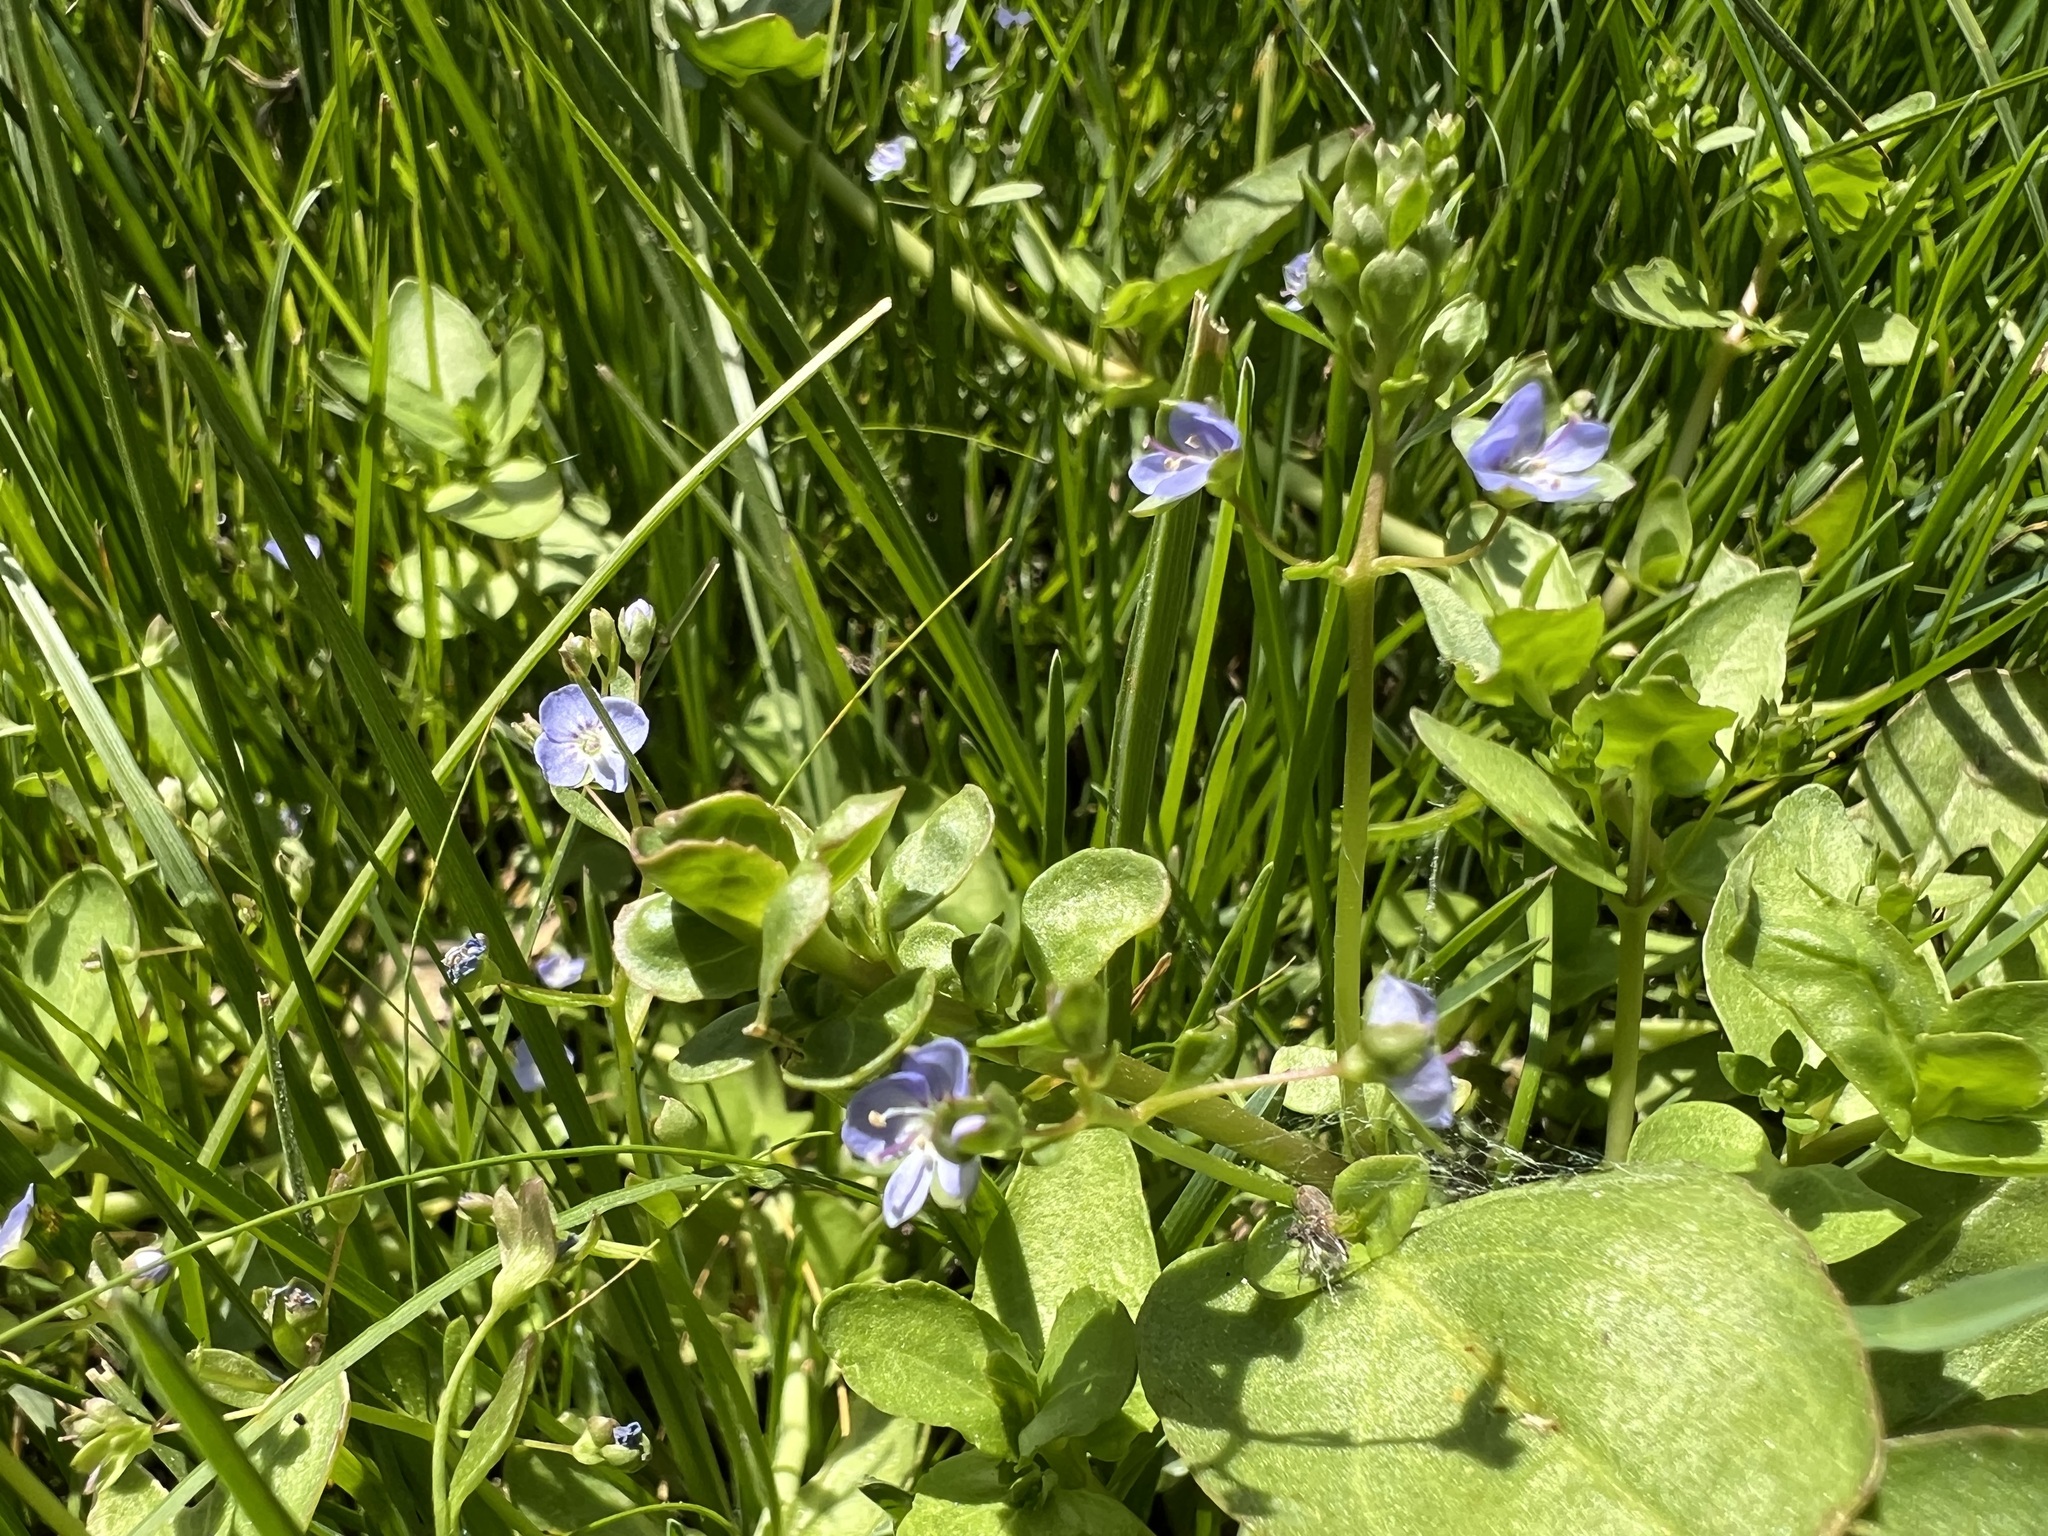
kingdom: Plantae
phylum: Tracheophyta
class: Magnoliopsida
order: Lamiales
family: Plantaginaceae
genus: Veronica
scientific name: Veronica americana
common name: American brooklime
